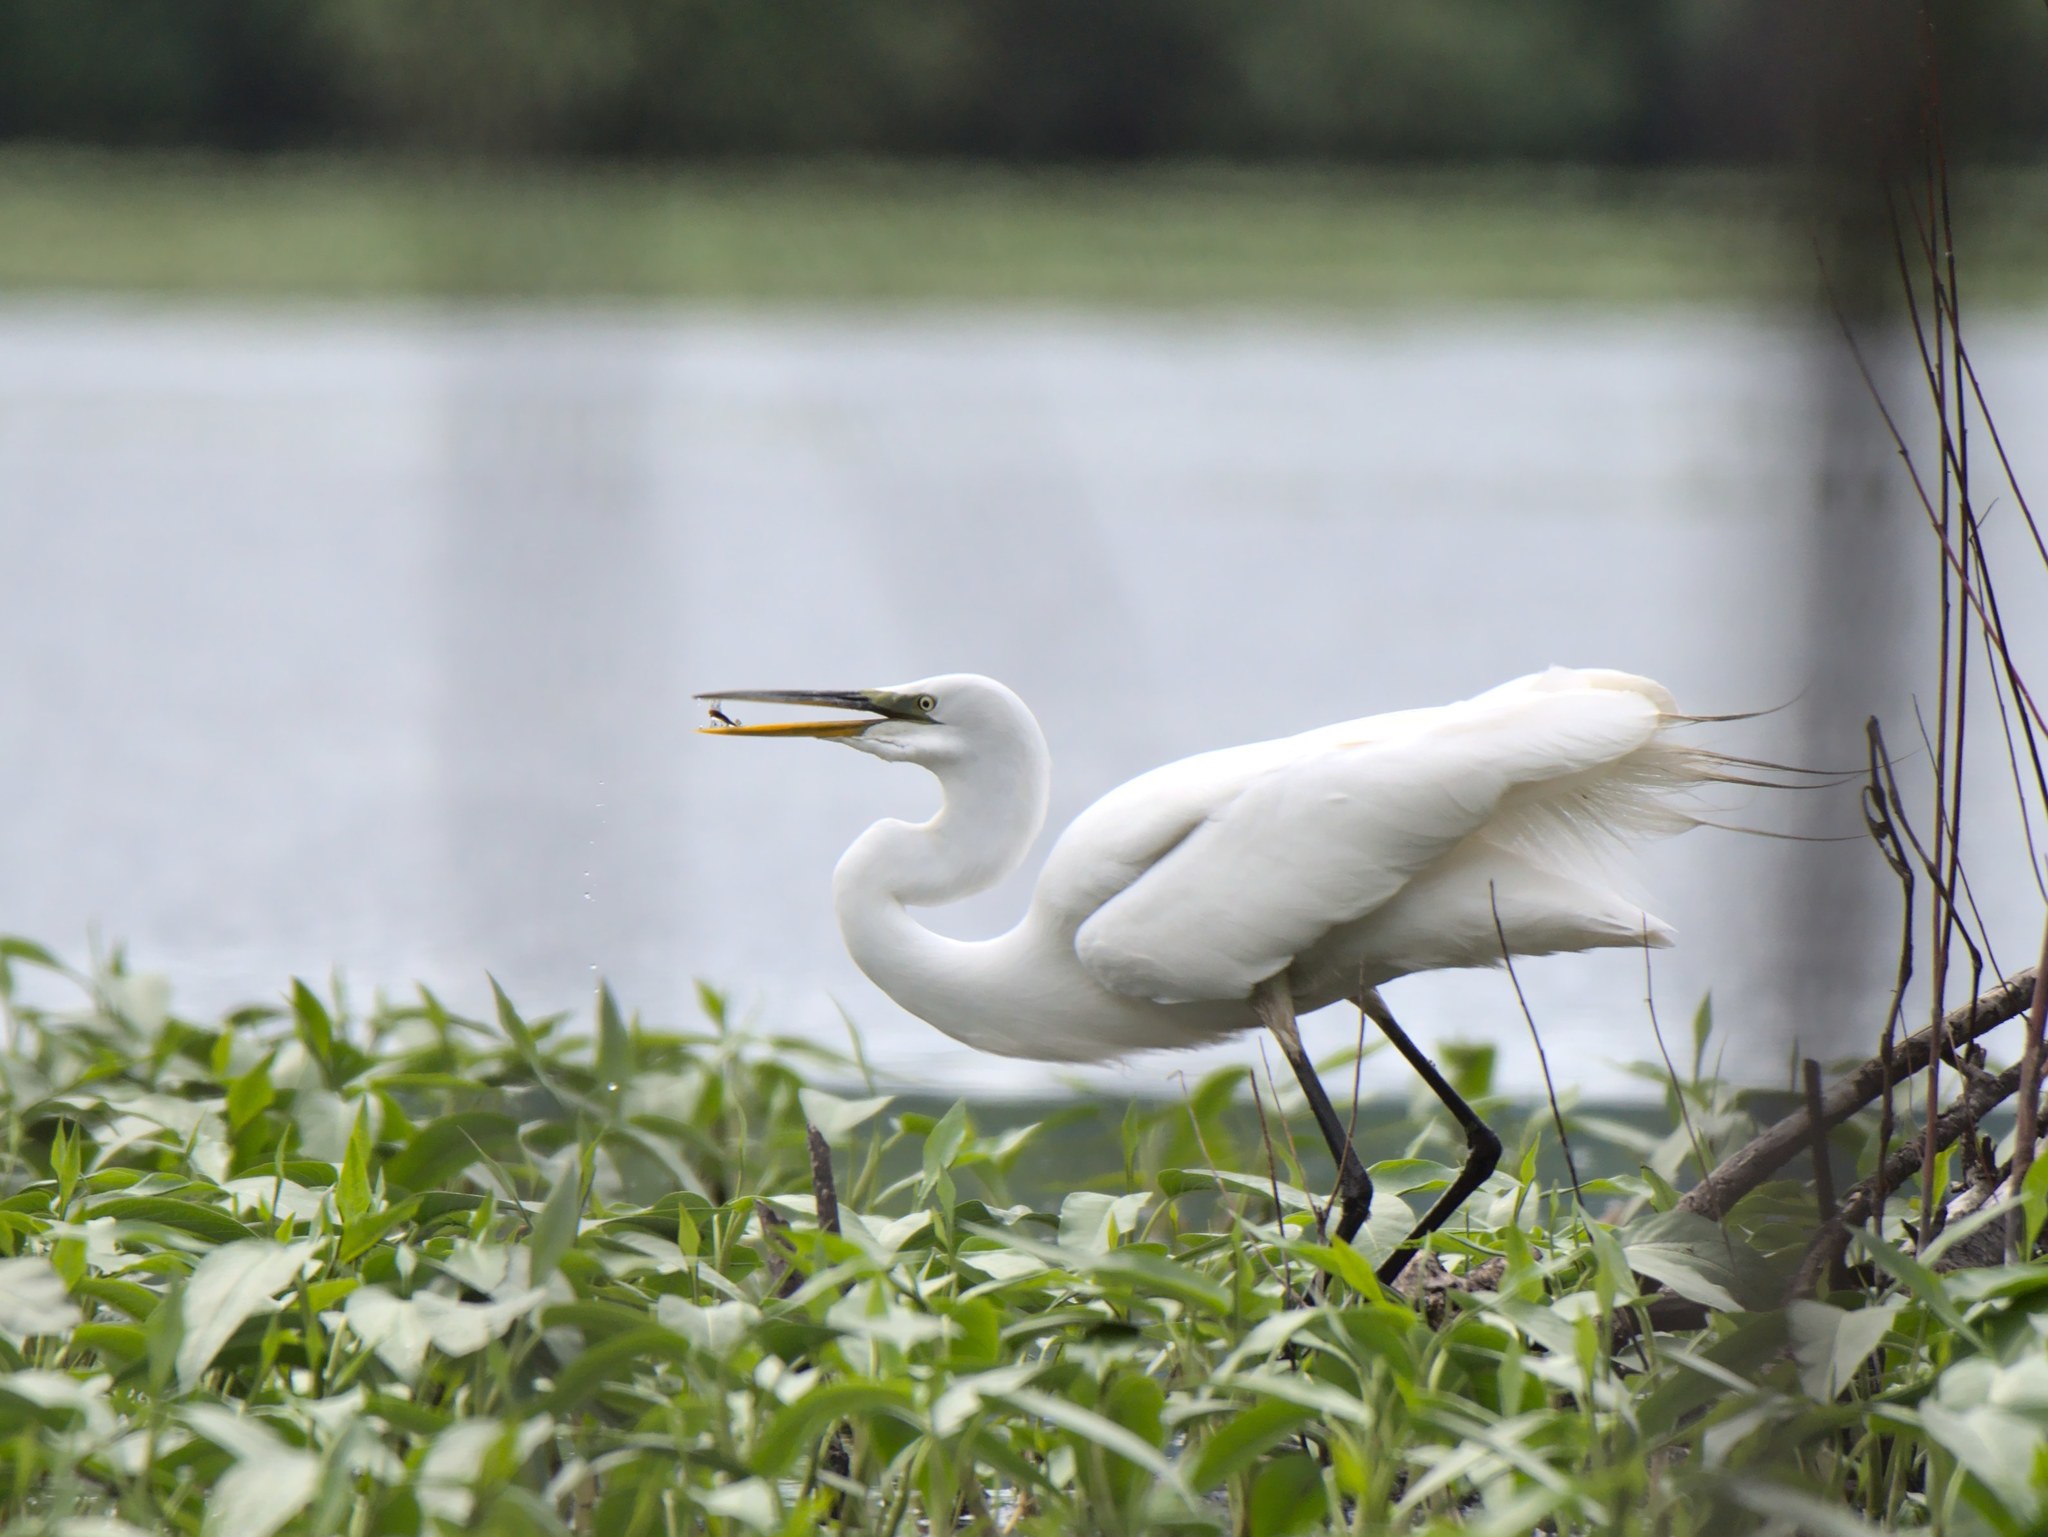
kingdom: Animalia
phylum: Chordata
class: Aves
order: Pelecaniformes
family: Ardeidae
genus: Ardea
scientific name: Ardea alba
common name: Great egret
